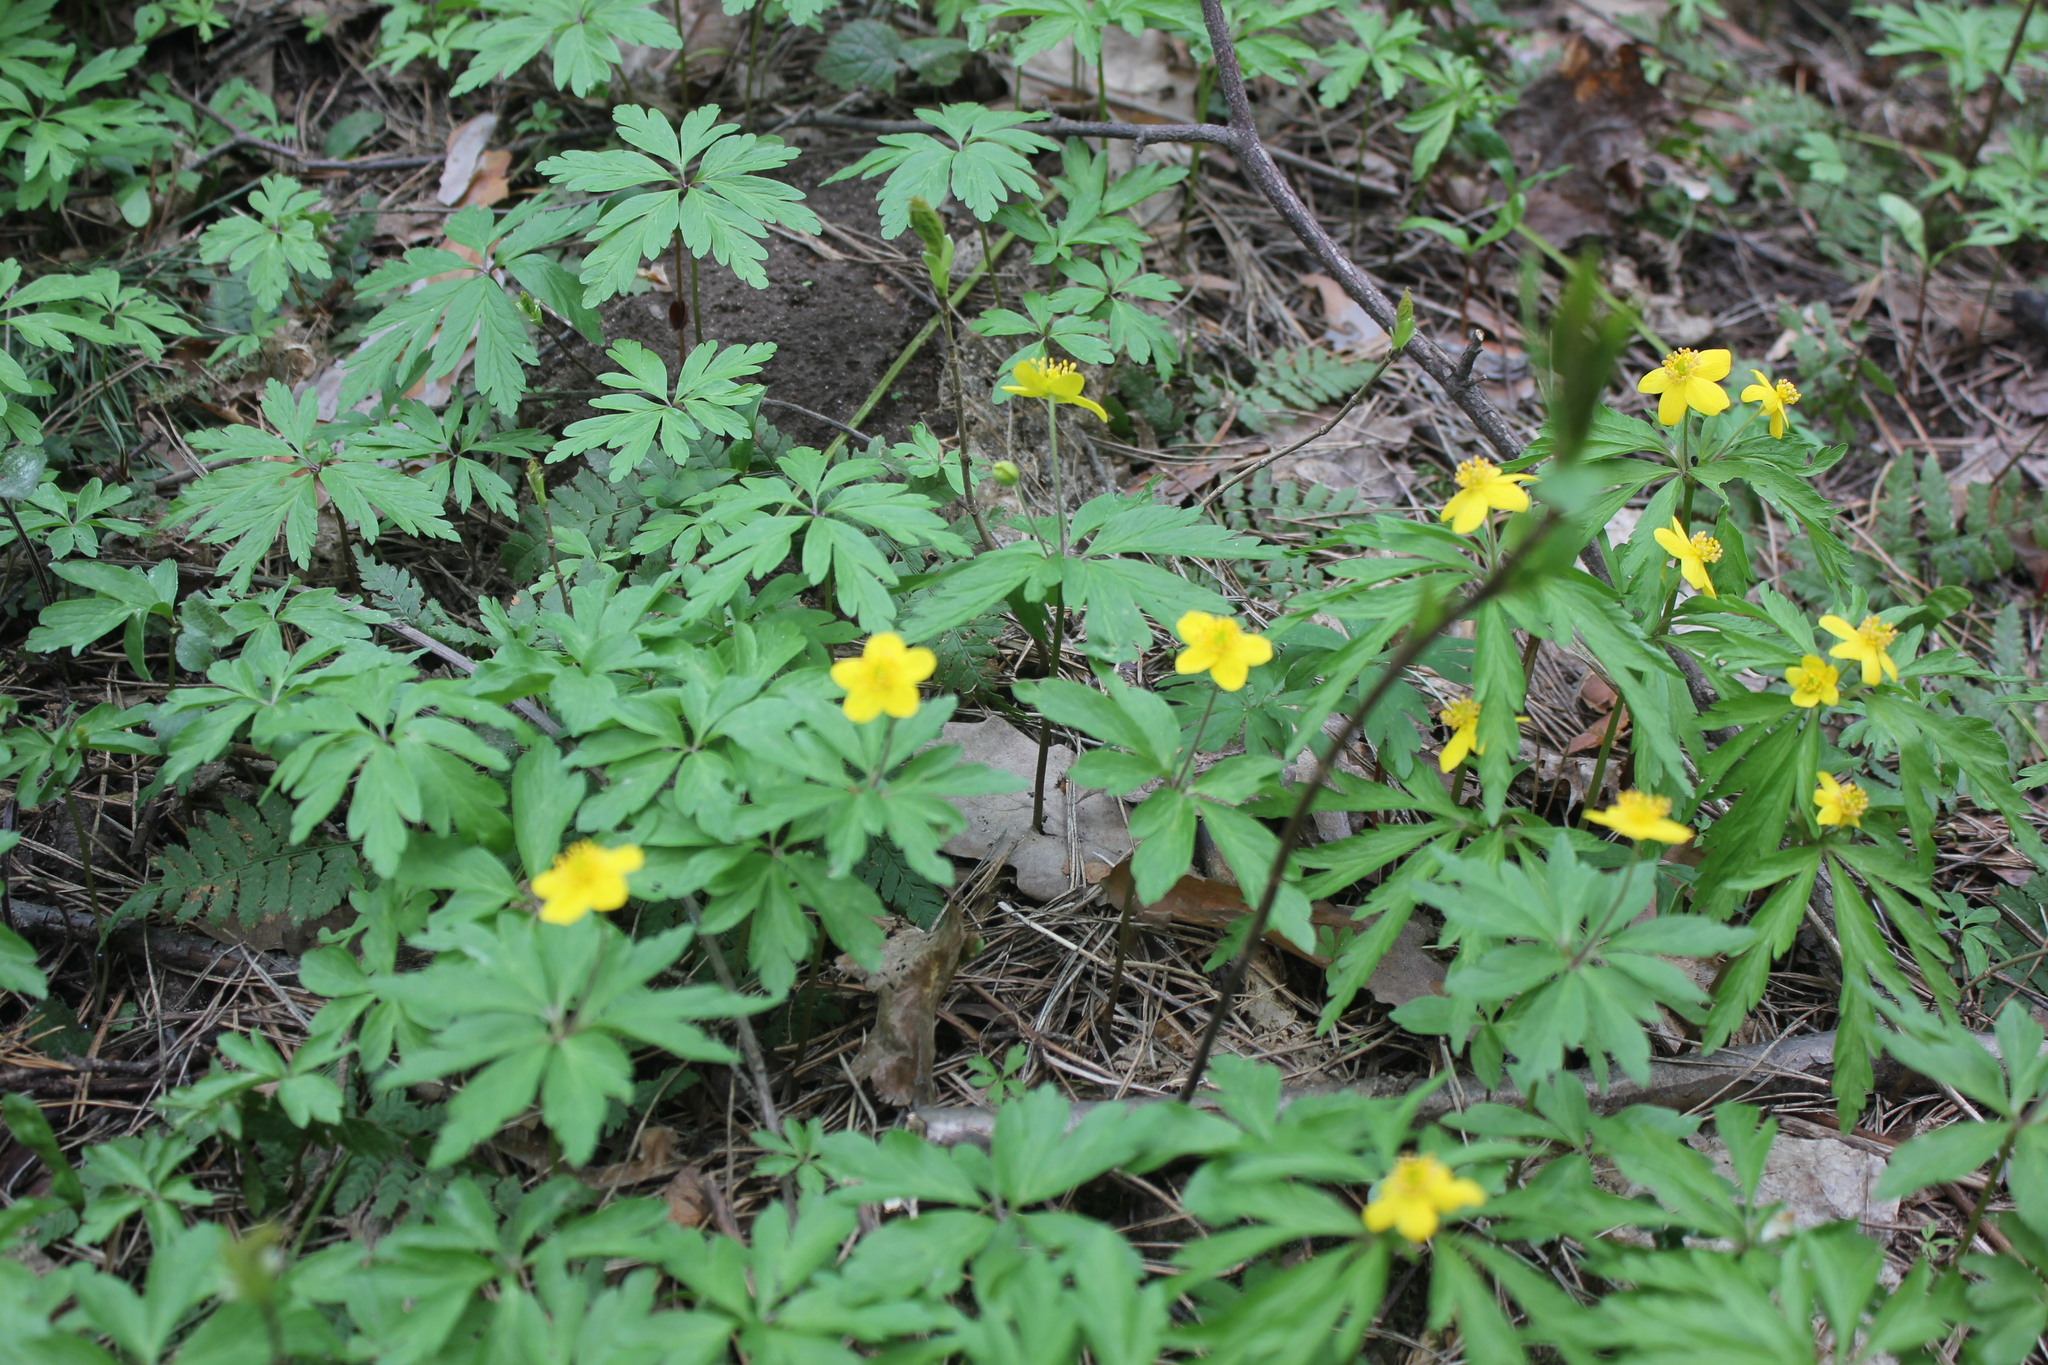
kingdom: Plantae
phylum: Tracheophyta
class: Magnoliopsida
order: Ranunculales
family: Ranunculaceae
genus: Anemone
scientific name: Anemone ranunculoides
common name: Yellow anemone
